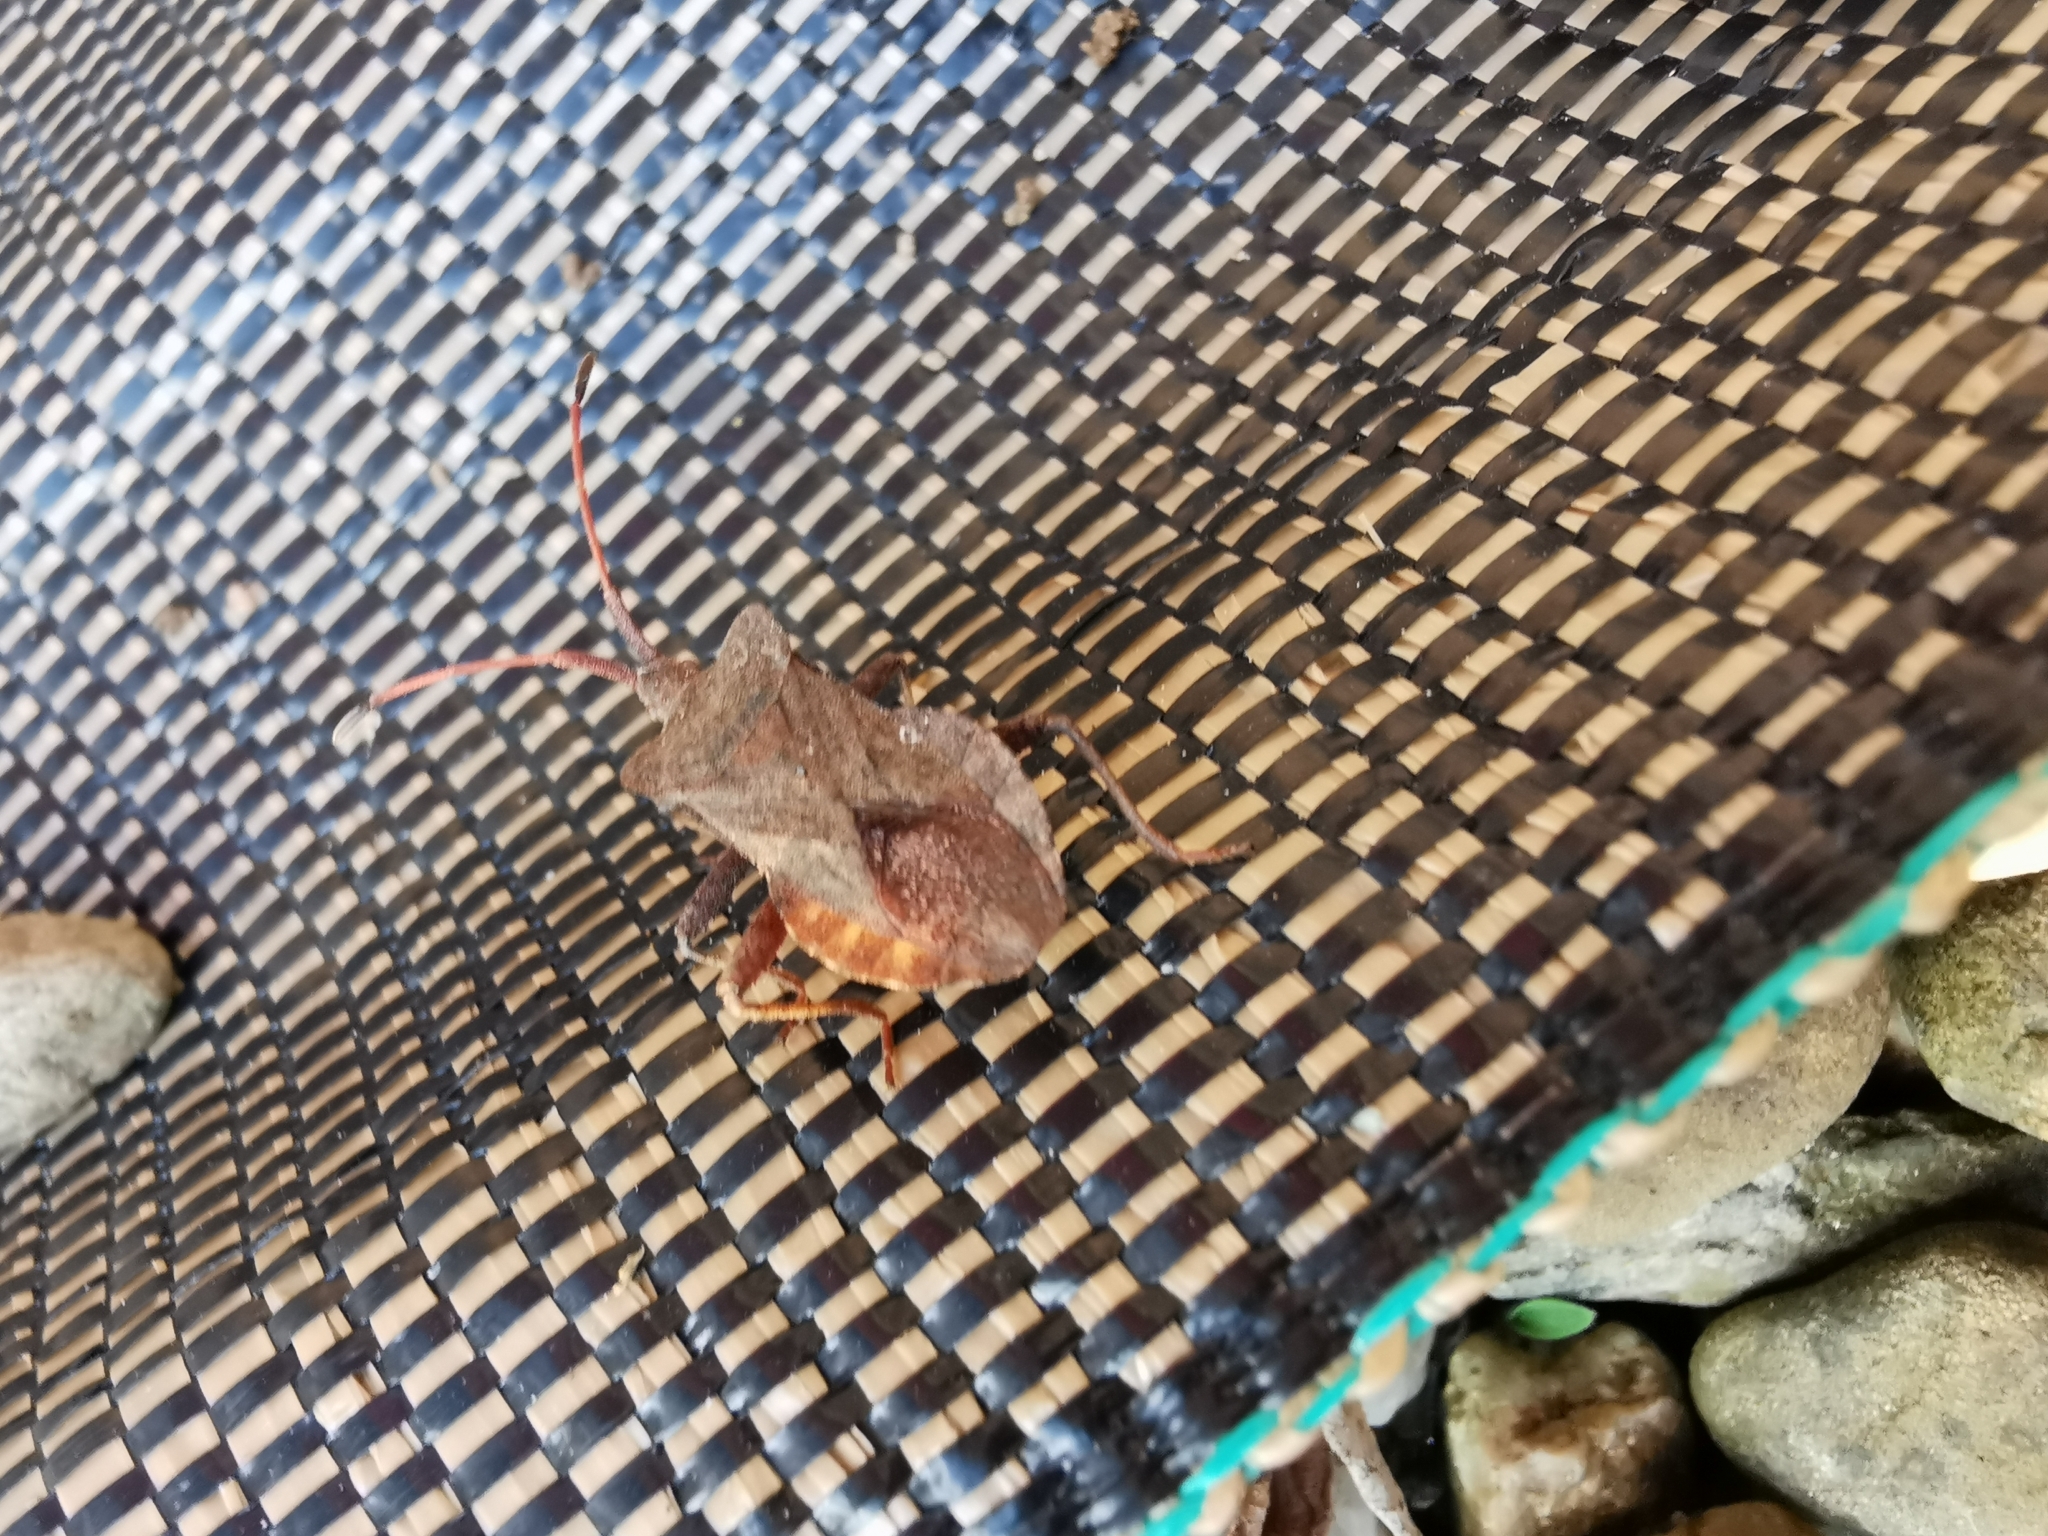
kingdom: Animalia
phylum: Arthropoda
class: Insecta
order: Hemiptera
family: Coreidae
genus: Coreus
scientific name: Coreus marginatus
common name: Dock bug
